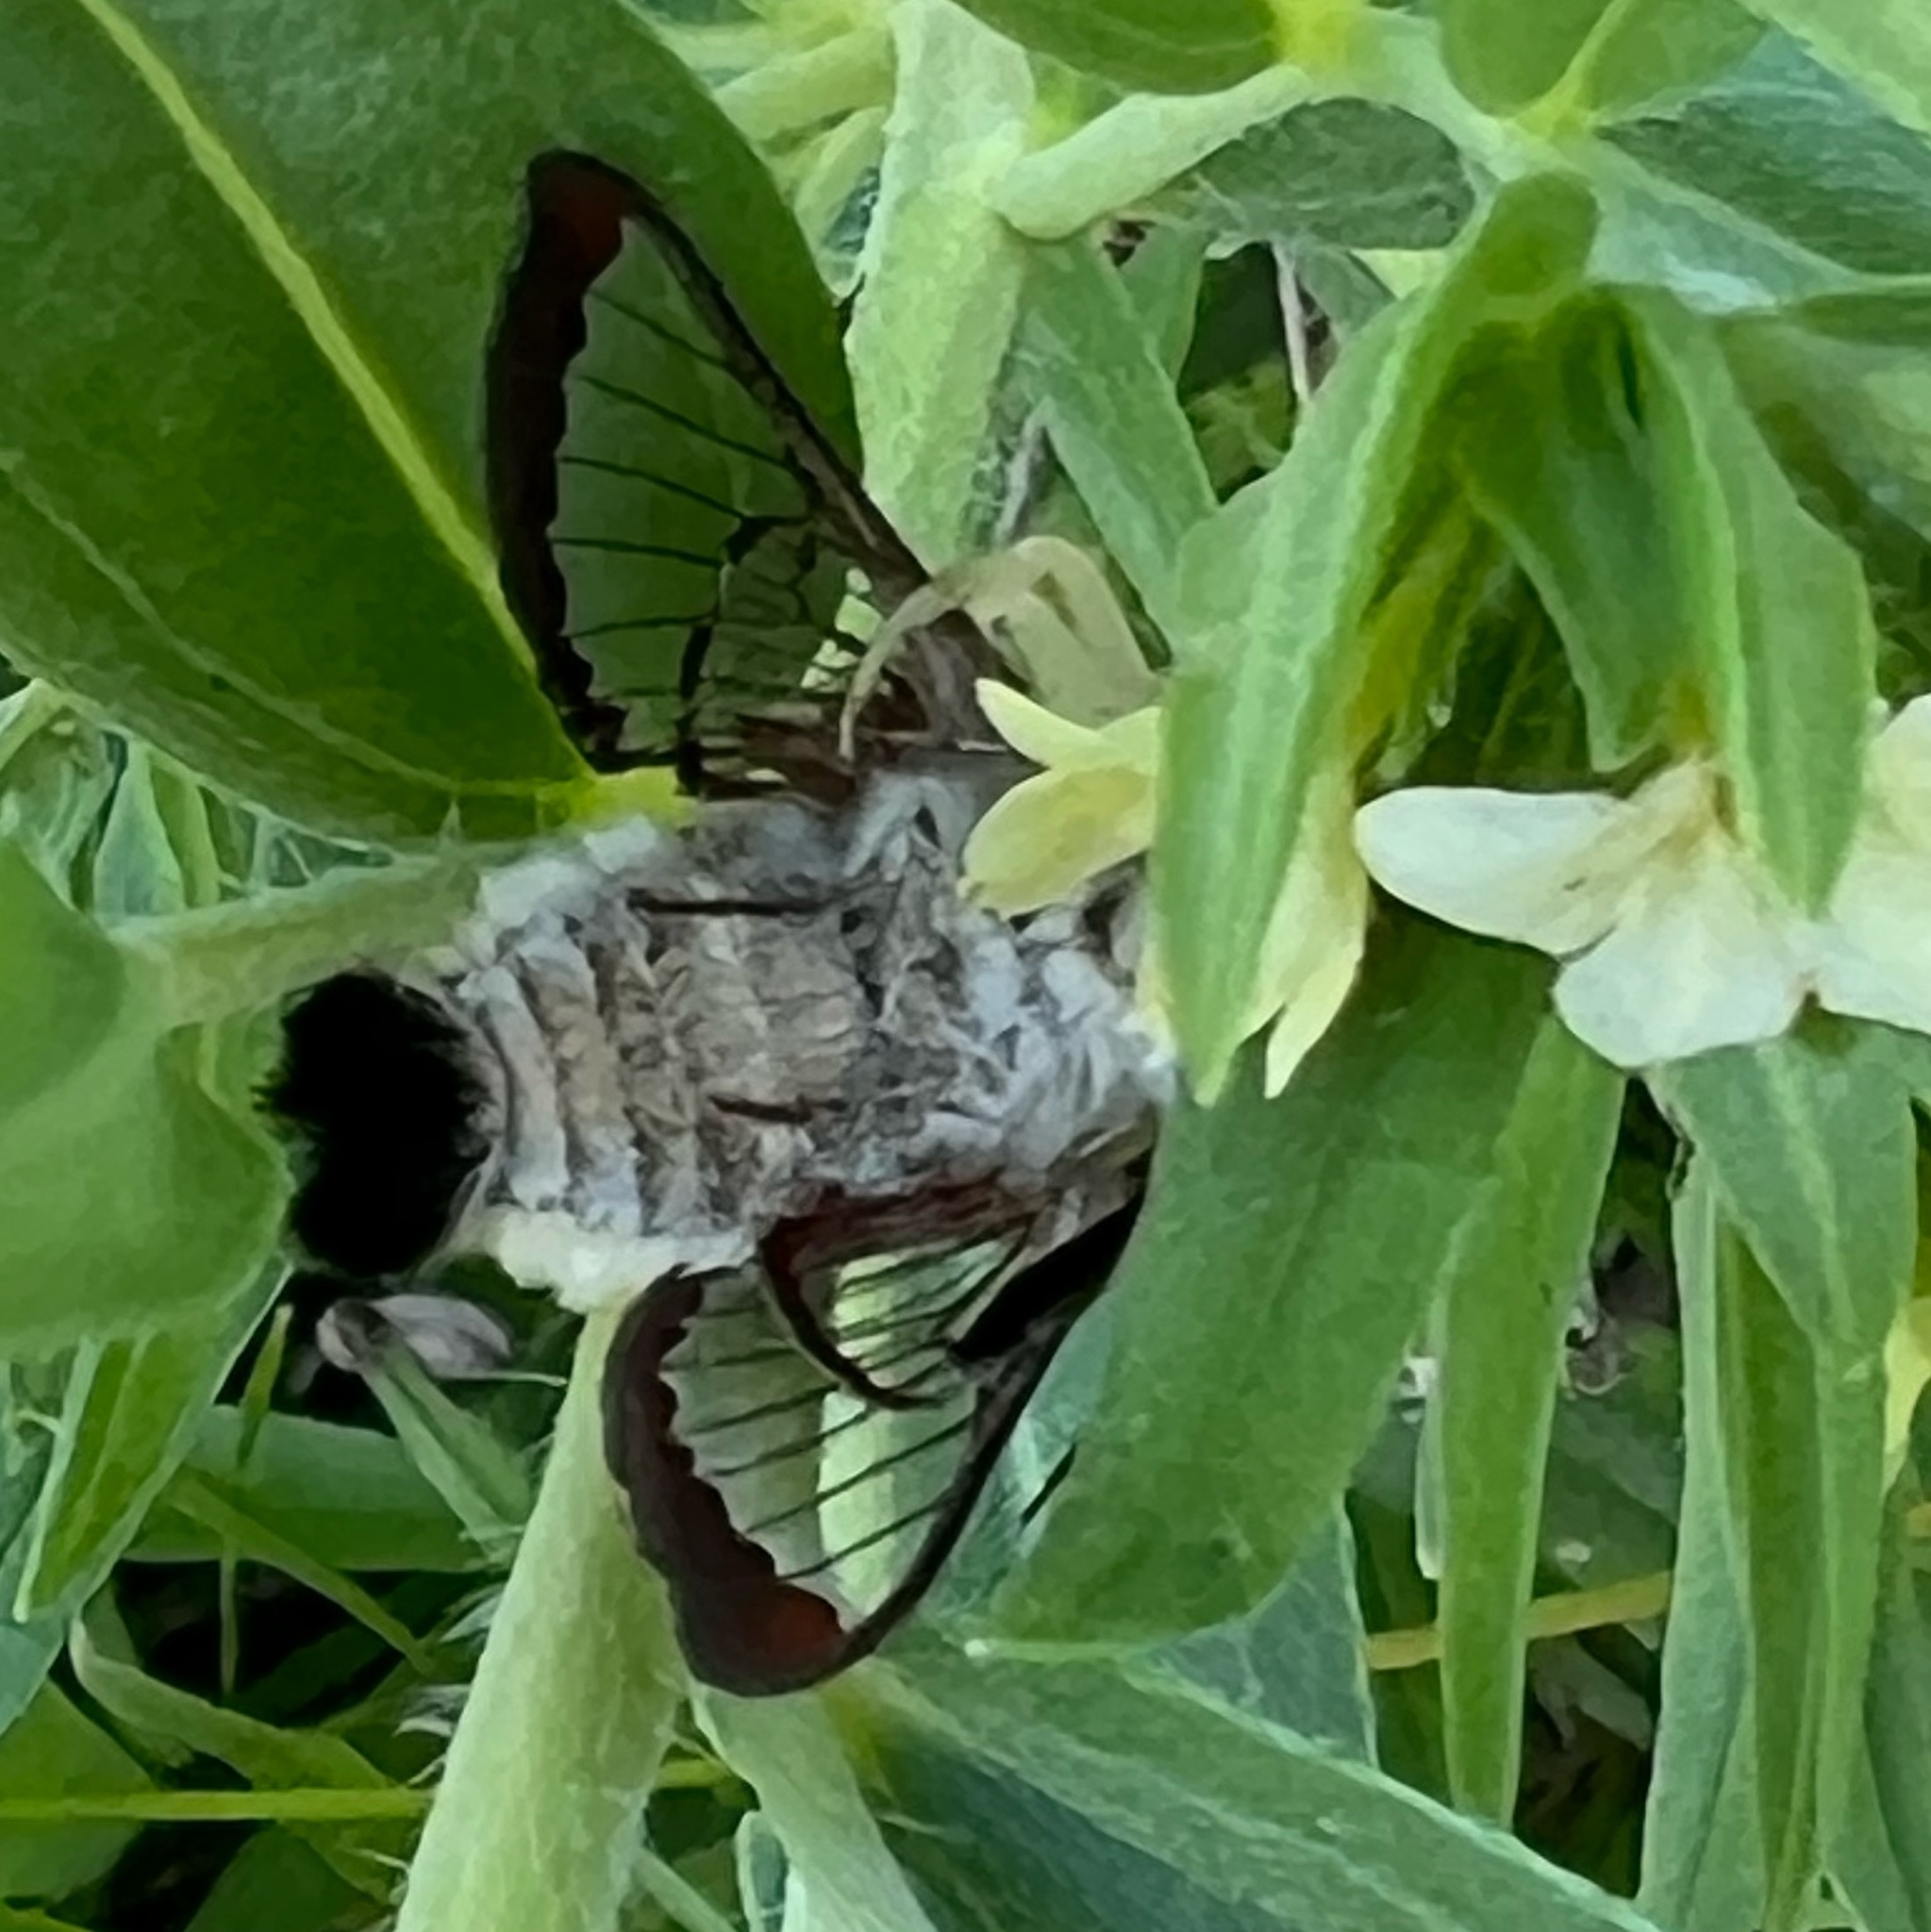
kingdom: Animalia
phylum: Arthropoda
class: Insecta
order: Lepidoptera
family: Sphingidae
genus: Hemaris
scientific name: Hemaris thetis
